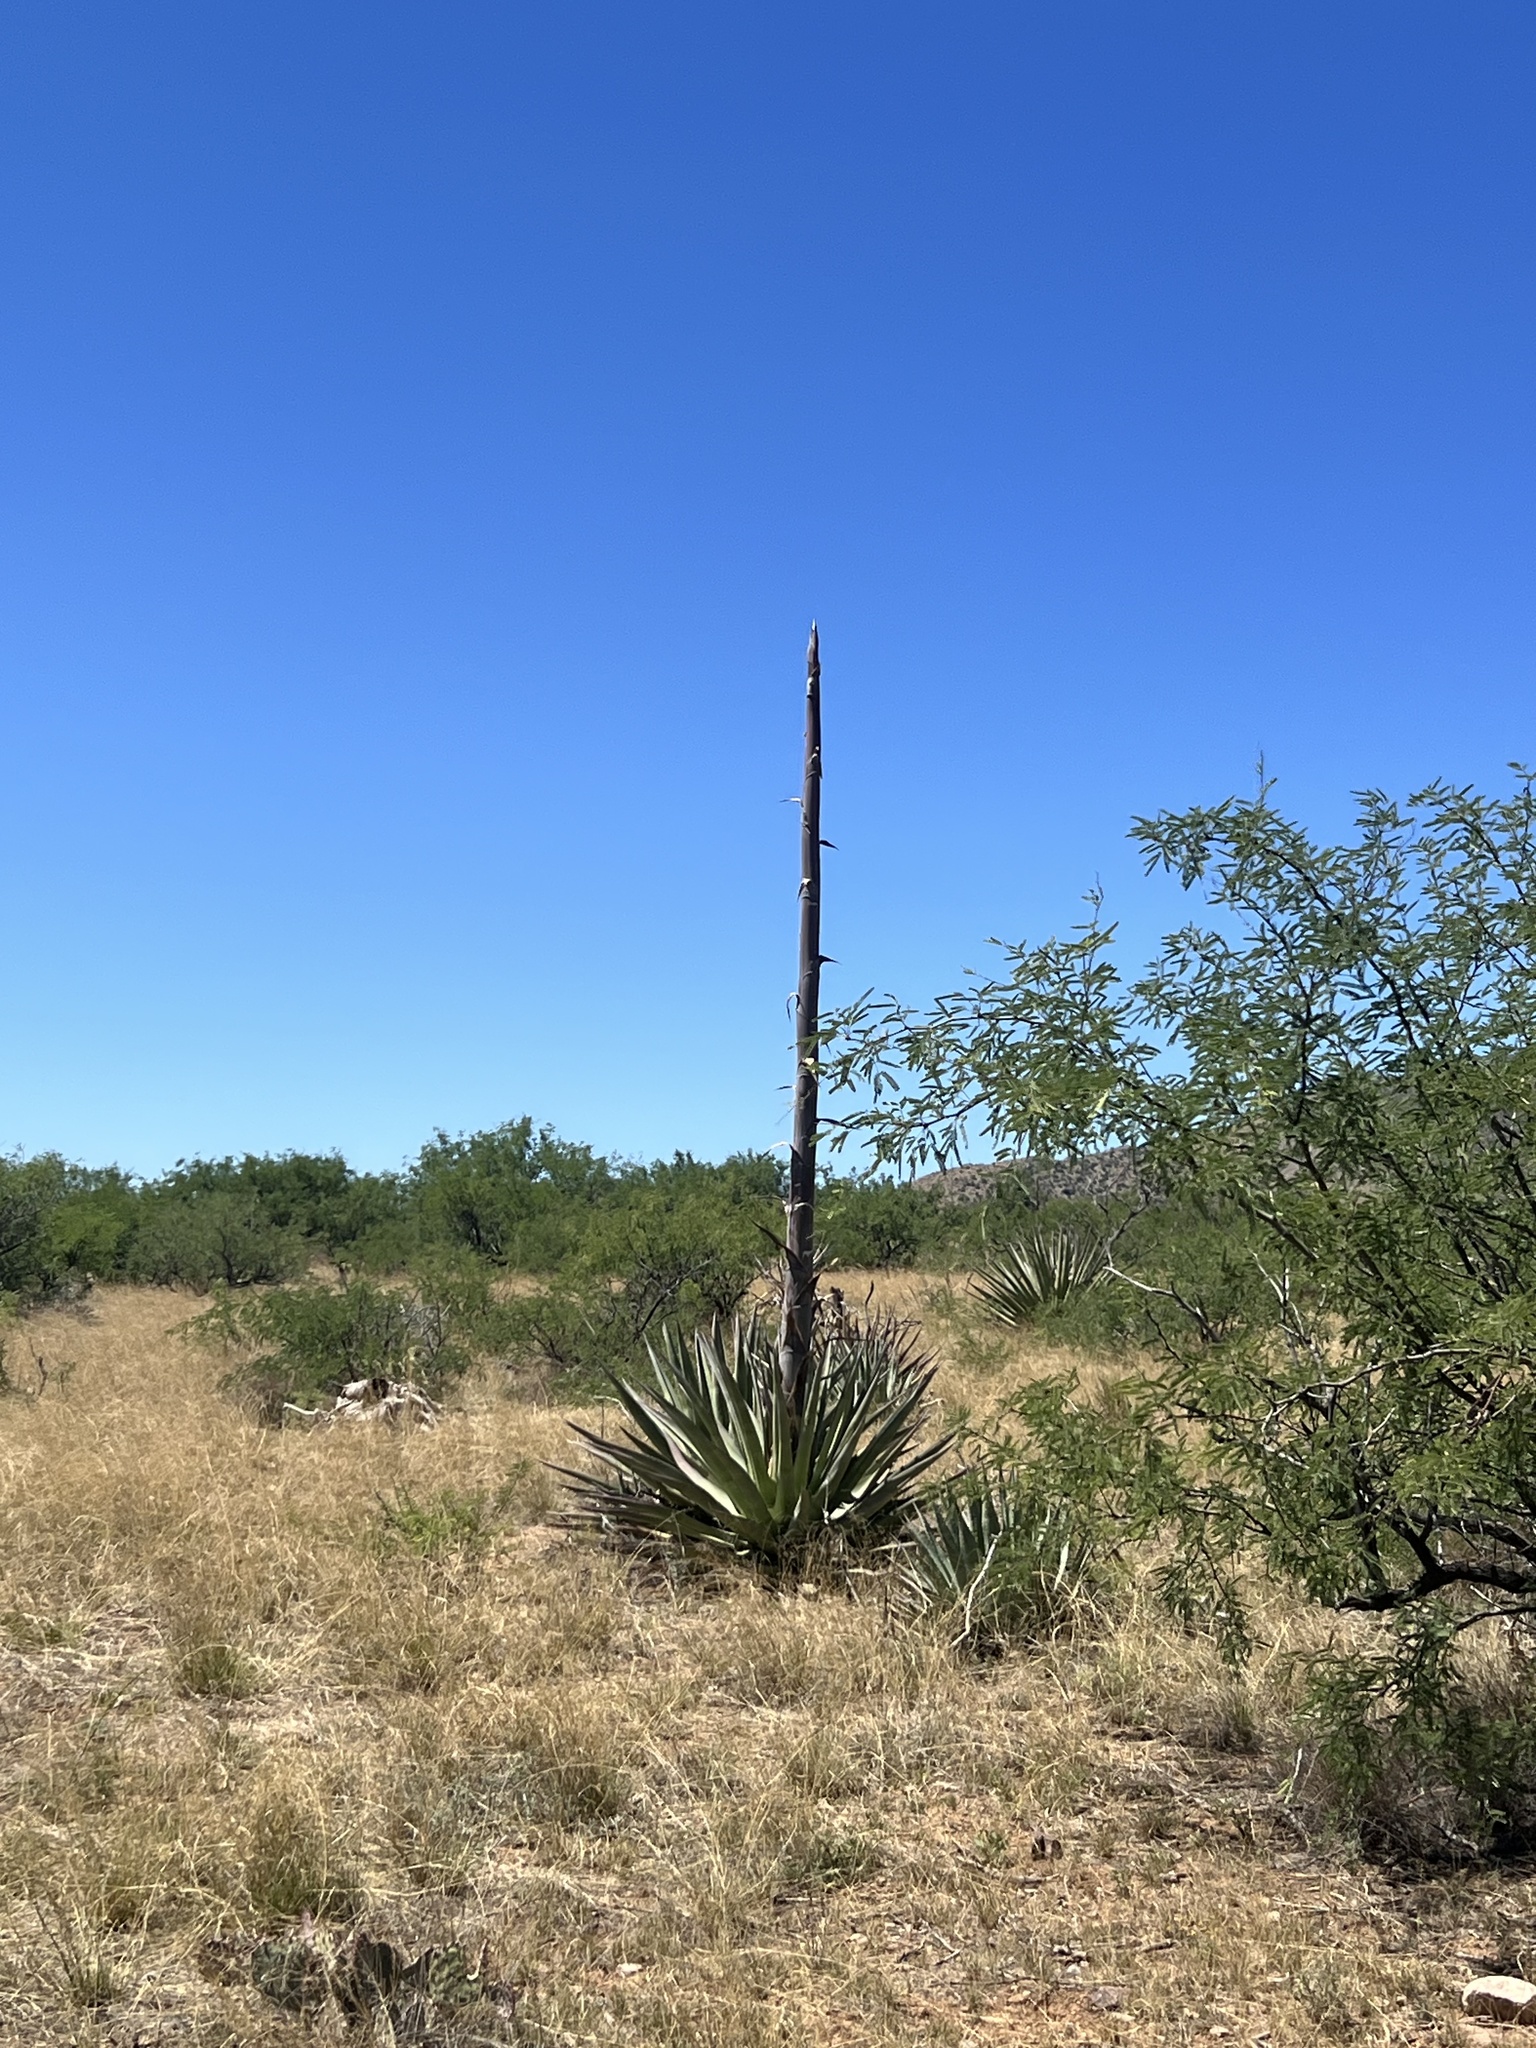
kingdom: Plantae
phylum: Tracheophyta
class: Liliopsida
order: Asparagales
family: Asparagaceae
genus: Agave
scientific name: Agave palmeri
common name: Palmer agave
